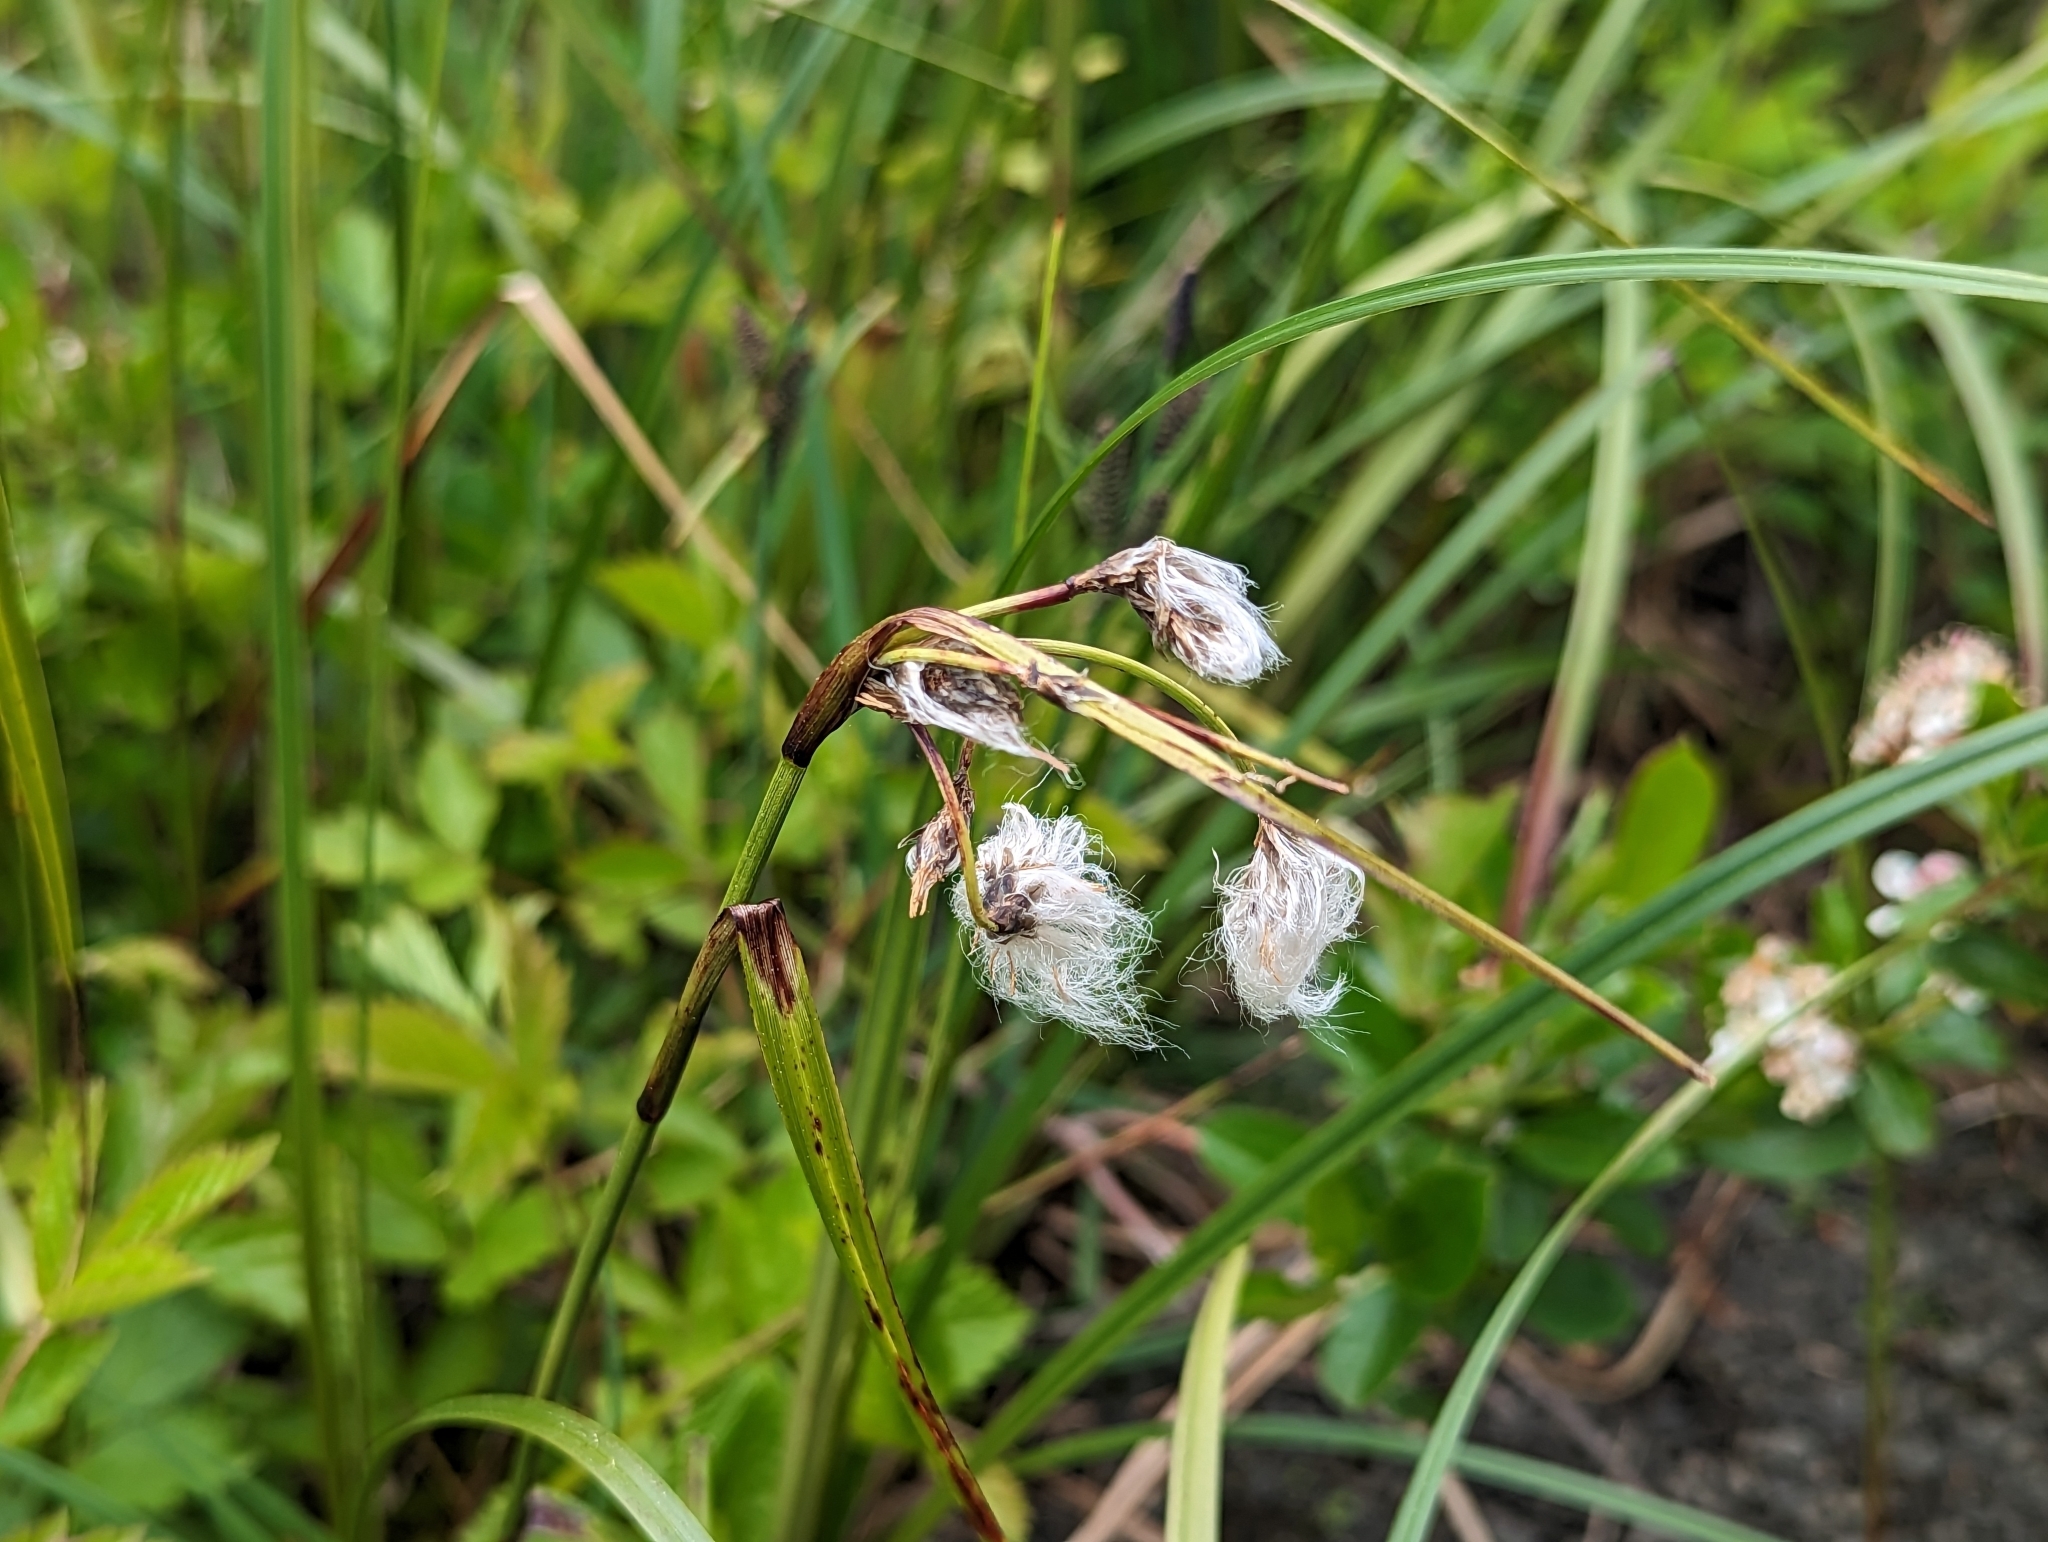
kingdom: Plantae
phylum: Tracheophyta
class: Liliopsida
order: Poales
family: Cyperaceae
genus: Eriophorum
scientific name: Eriophorum angustifolium
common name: Common cottongrass
